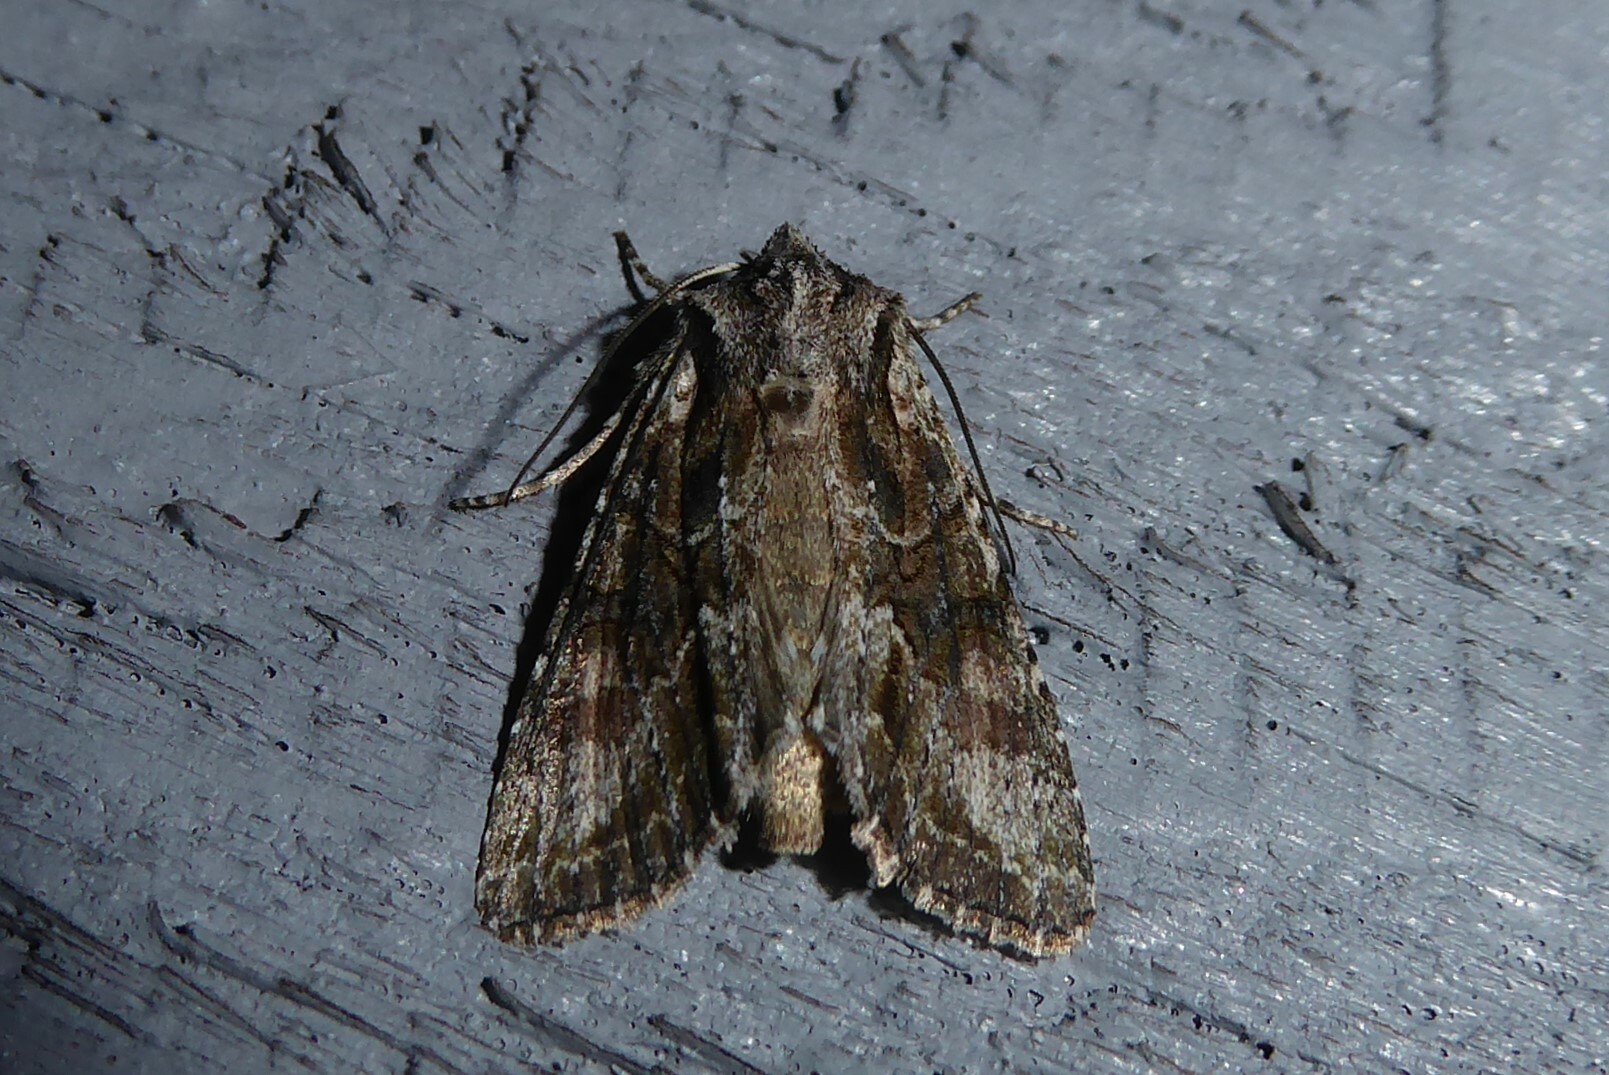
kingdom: Animalia
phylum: Arthropoda
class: Insecta
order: Lepidoptera
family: Noctuidae
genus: Ichneutica
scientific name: Ichneutica mutans
